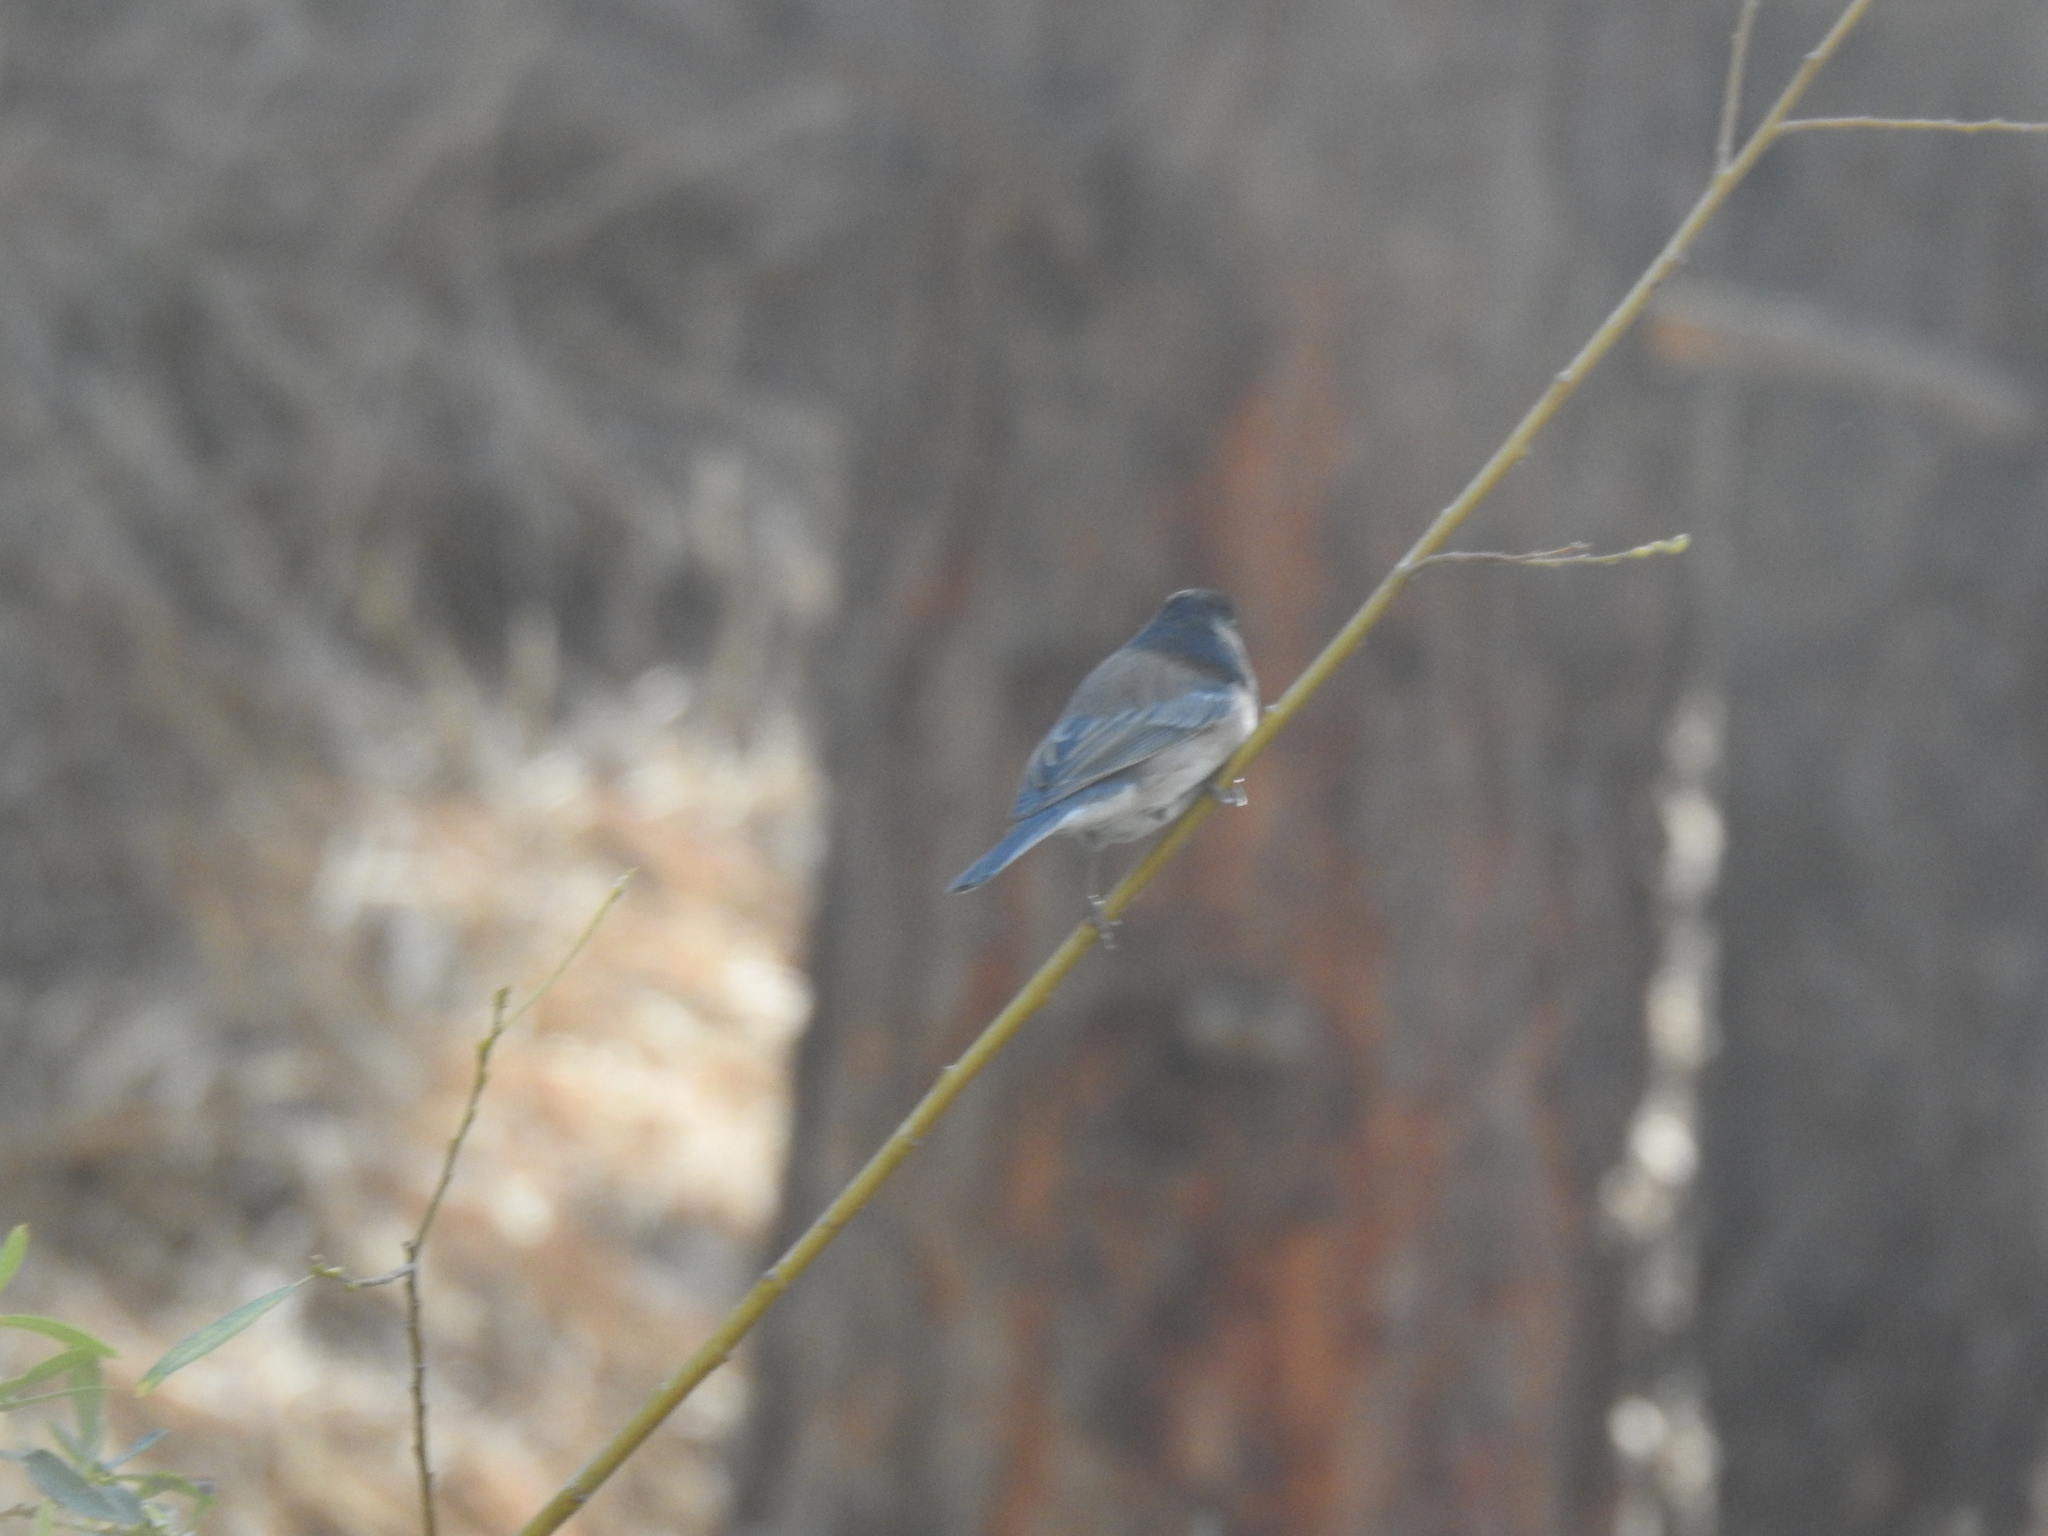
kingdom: Animalia
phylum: Chordata
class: Aves
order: Passeriformes
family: Passerellidae
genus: Junco
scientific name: Junco hyemalis
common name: Dark-eyed junco
